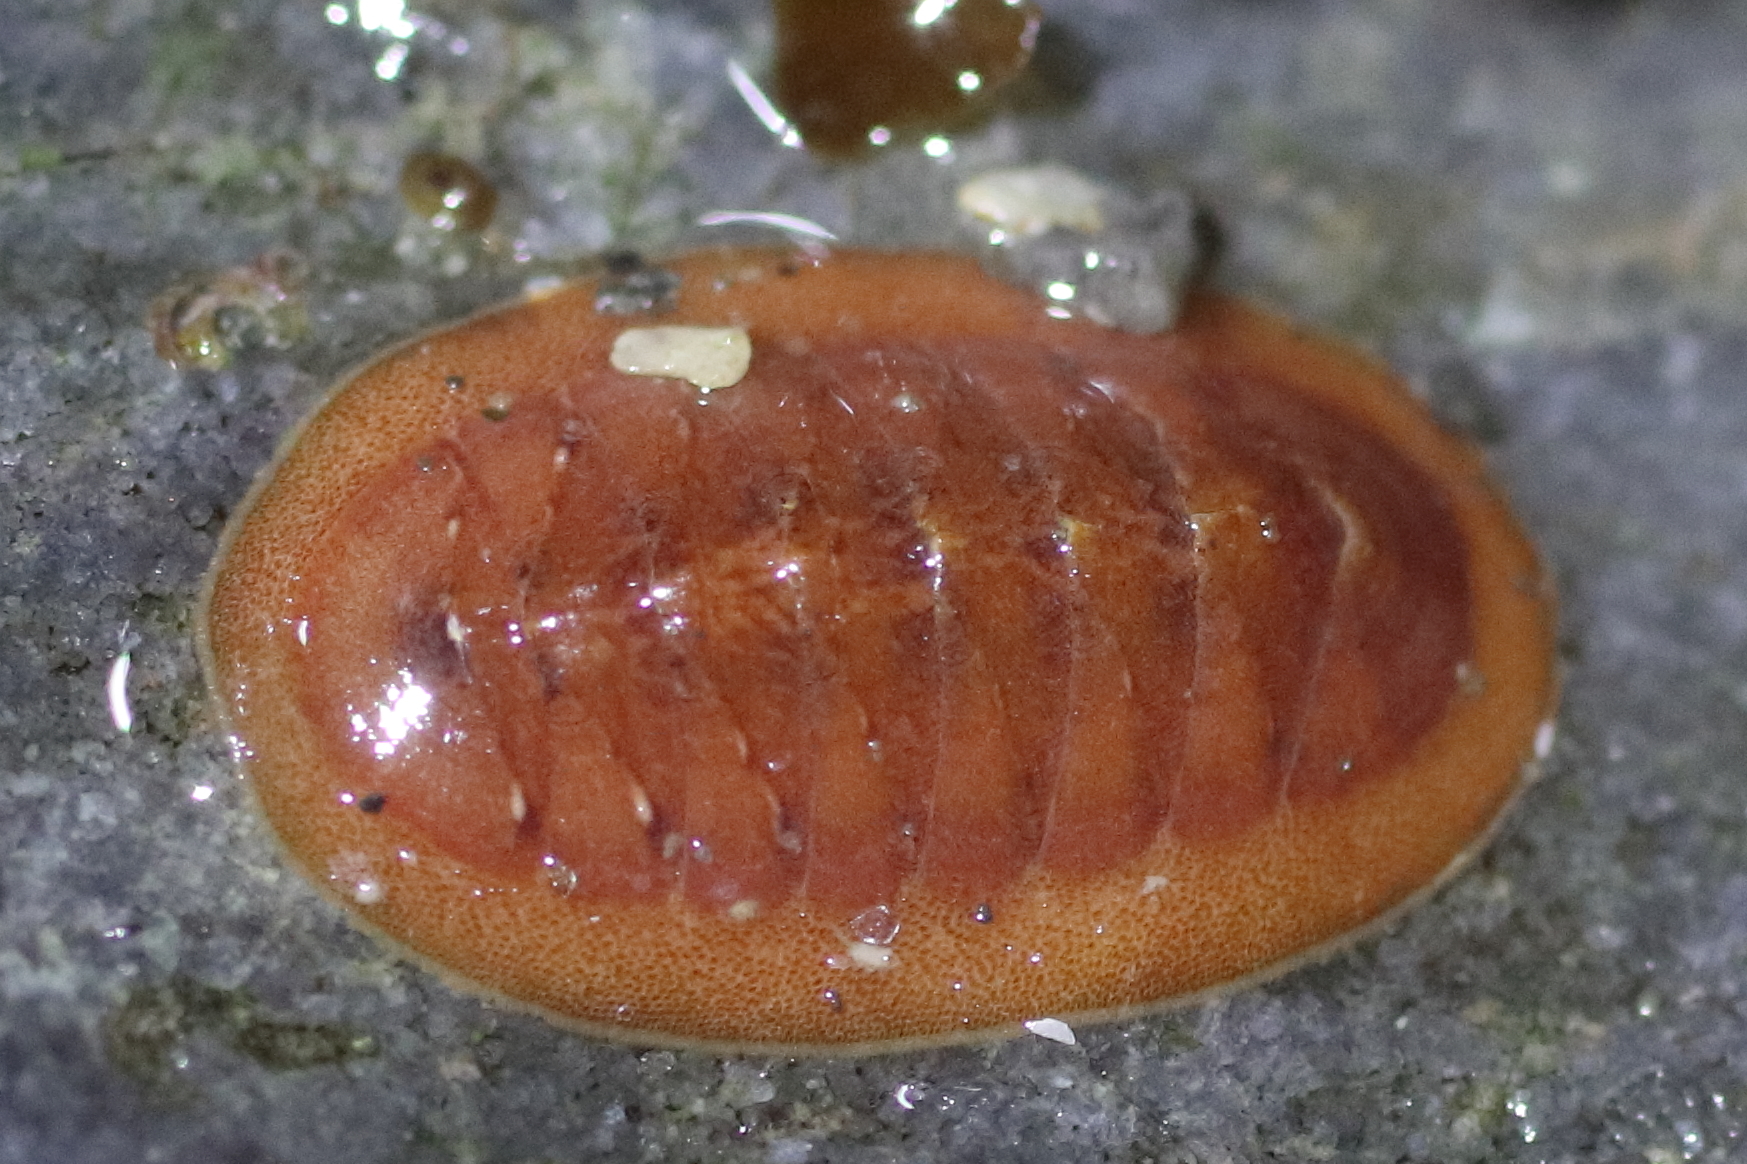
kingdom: Animalia
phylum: Mollusca
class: Polyplacophora
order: Chitonida
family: Ischnochitonidae
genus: Lepidozona
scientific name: Lepidozona interstincta
